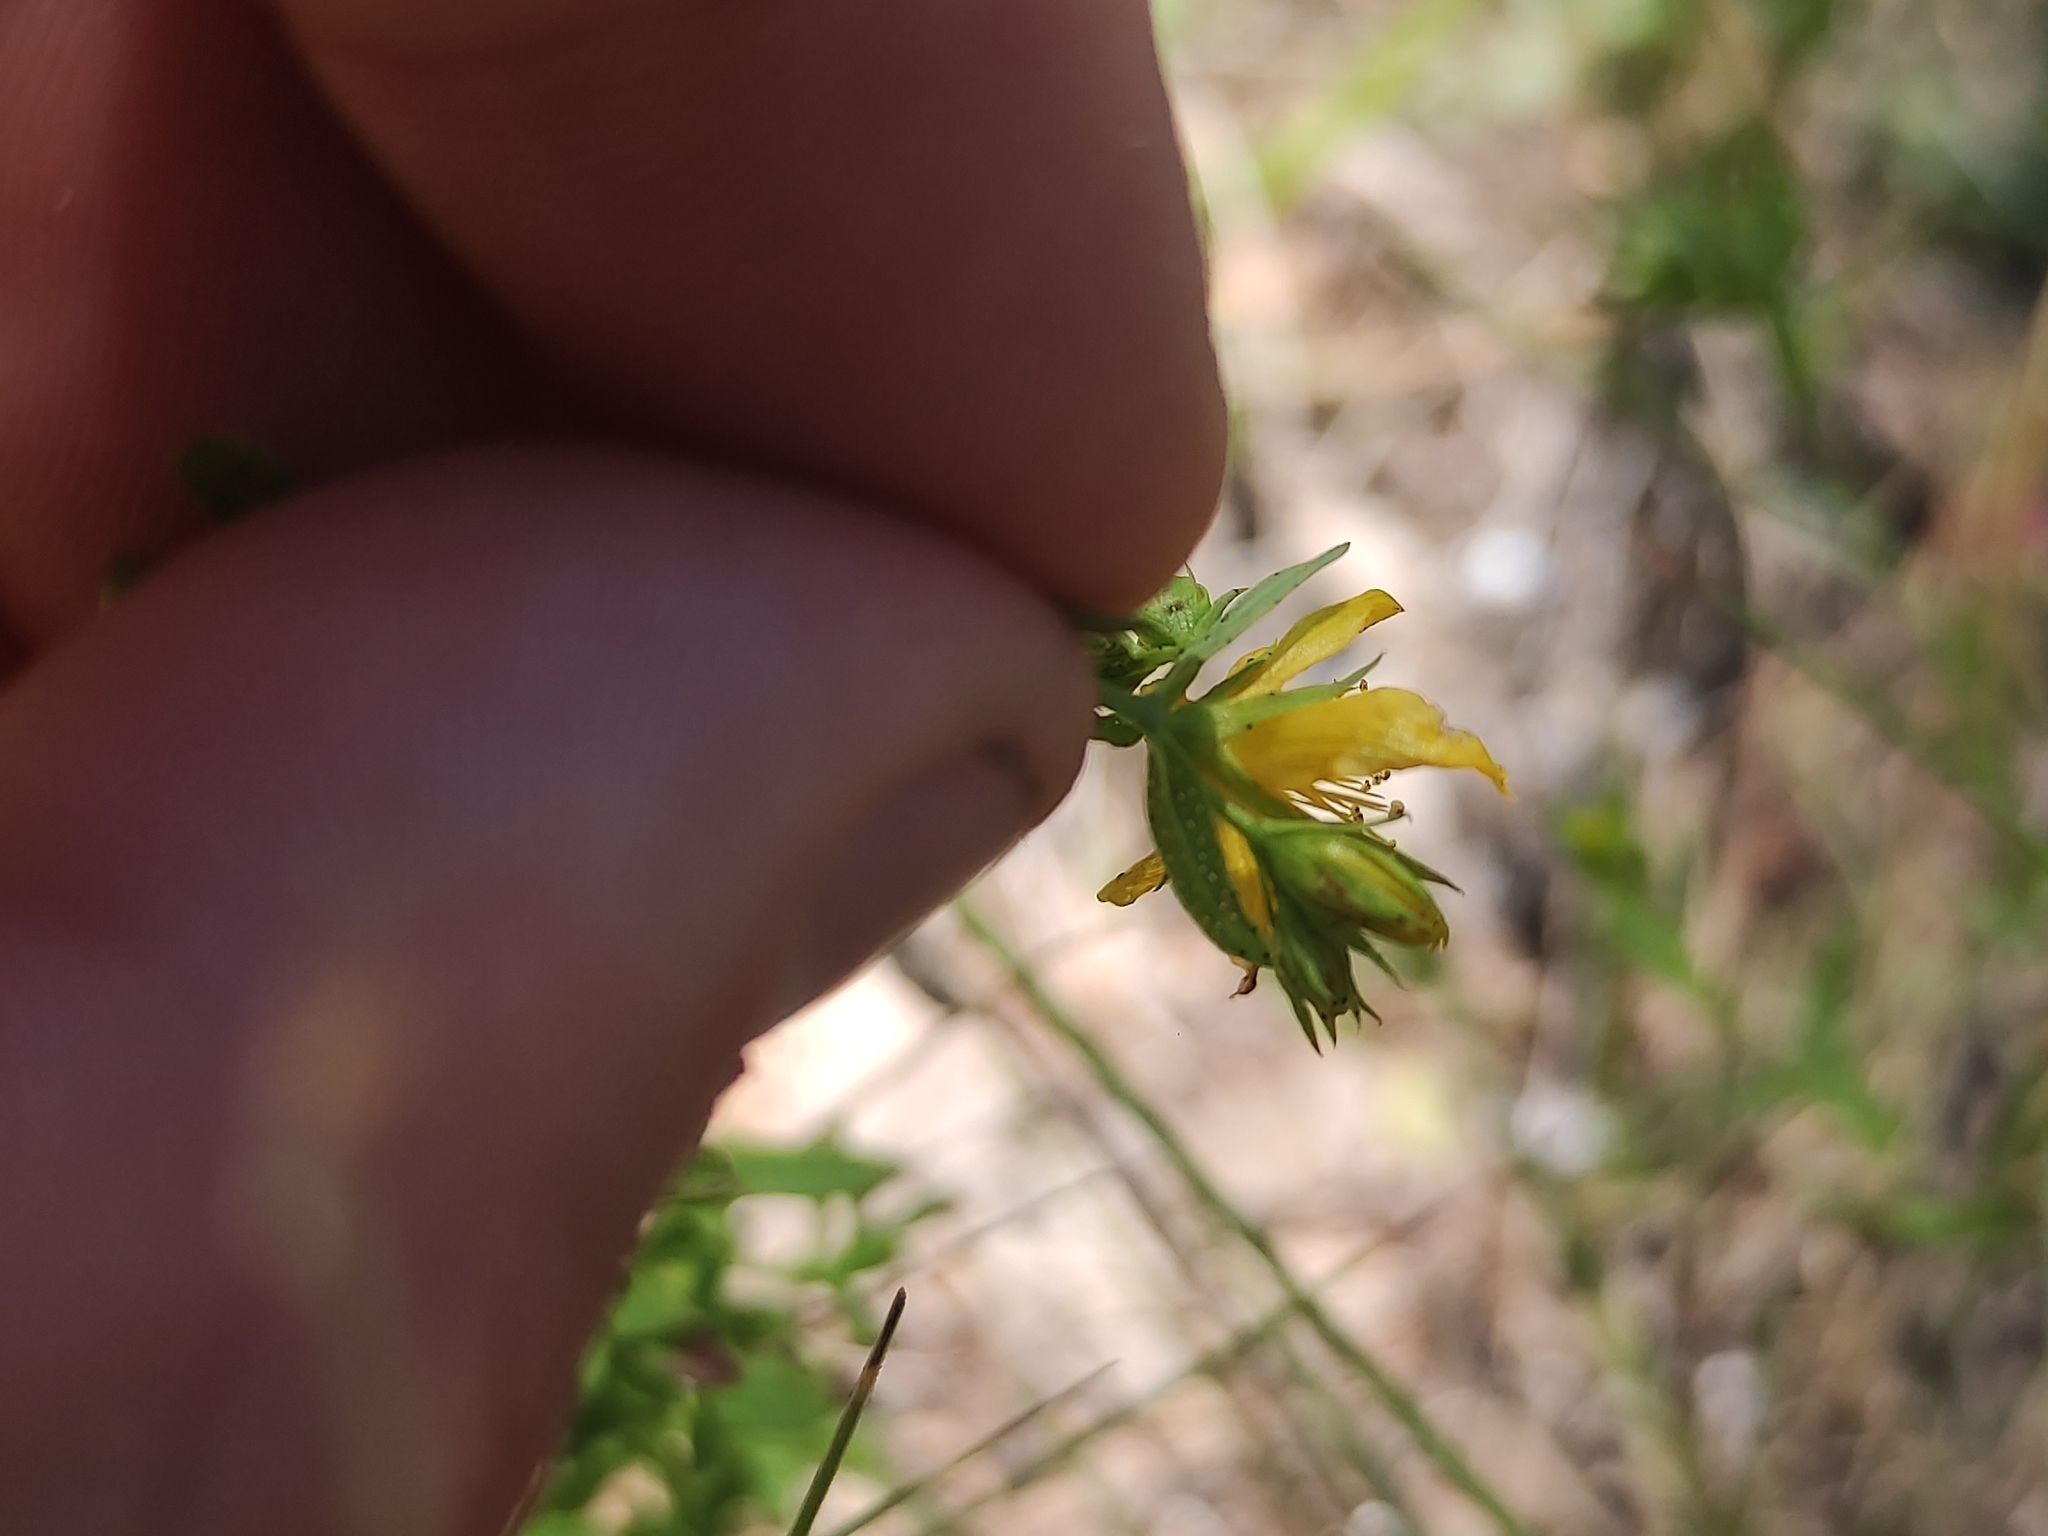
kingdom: Plantae
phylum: Tracheophyta
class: Magnoliopsida
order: Malpighiales
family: Hypericaceae
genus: Hypericum
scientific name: Hypericum perforatum
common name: Common st. johnswort
